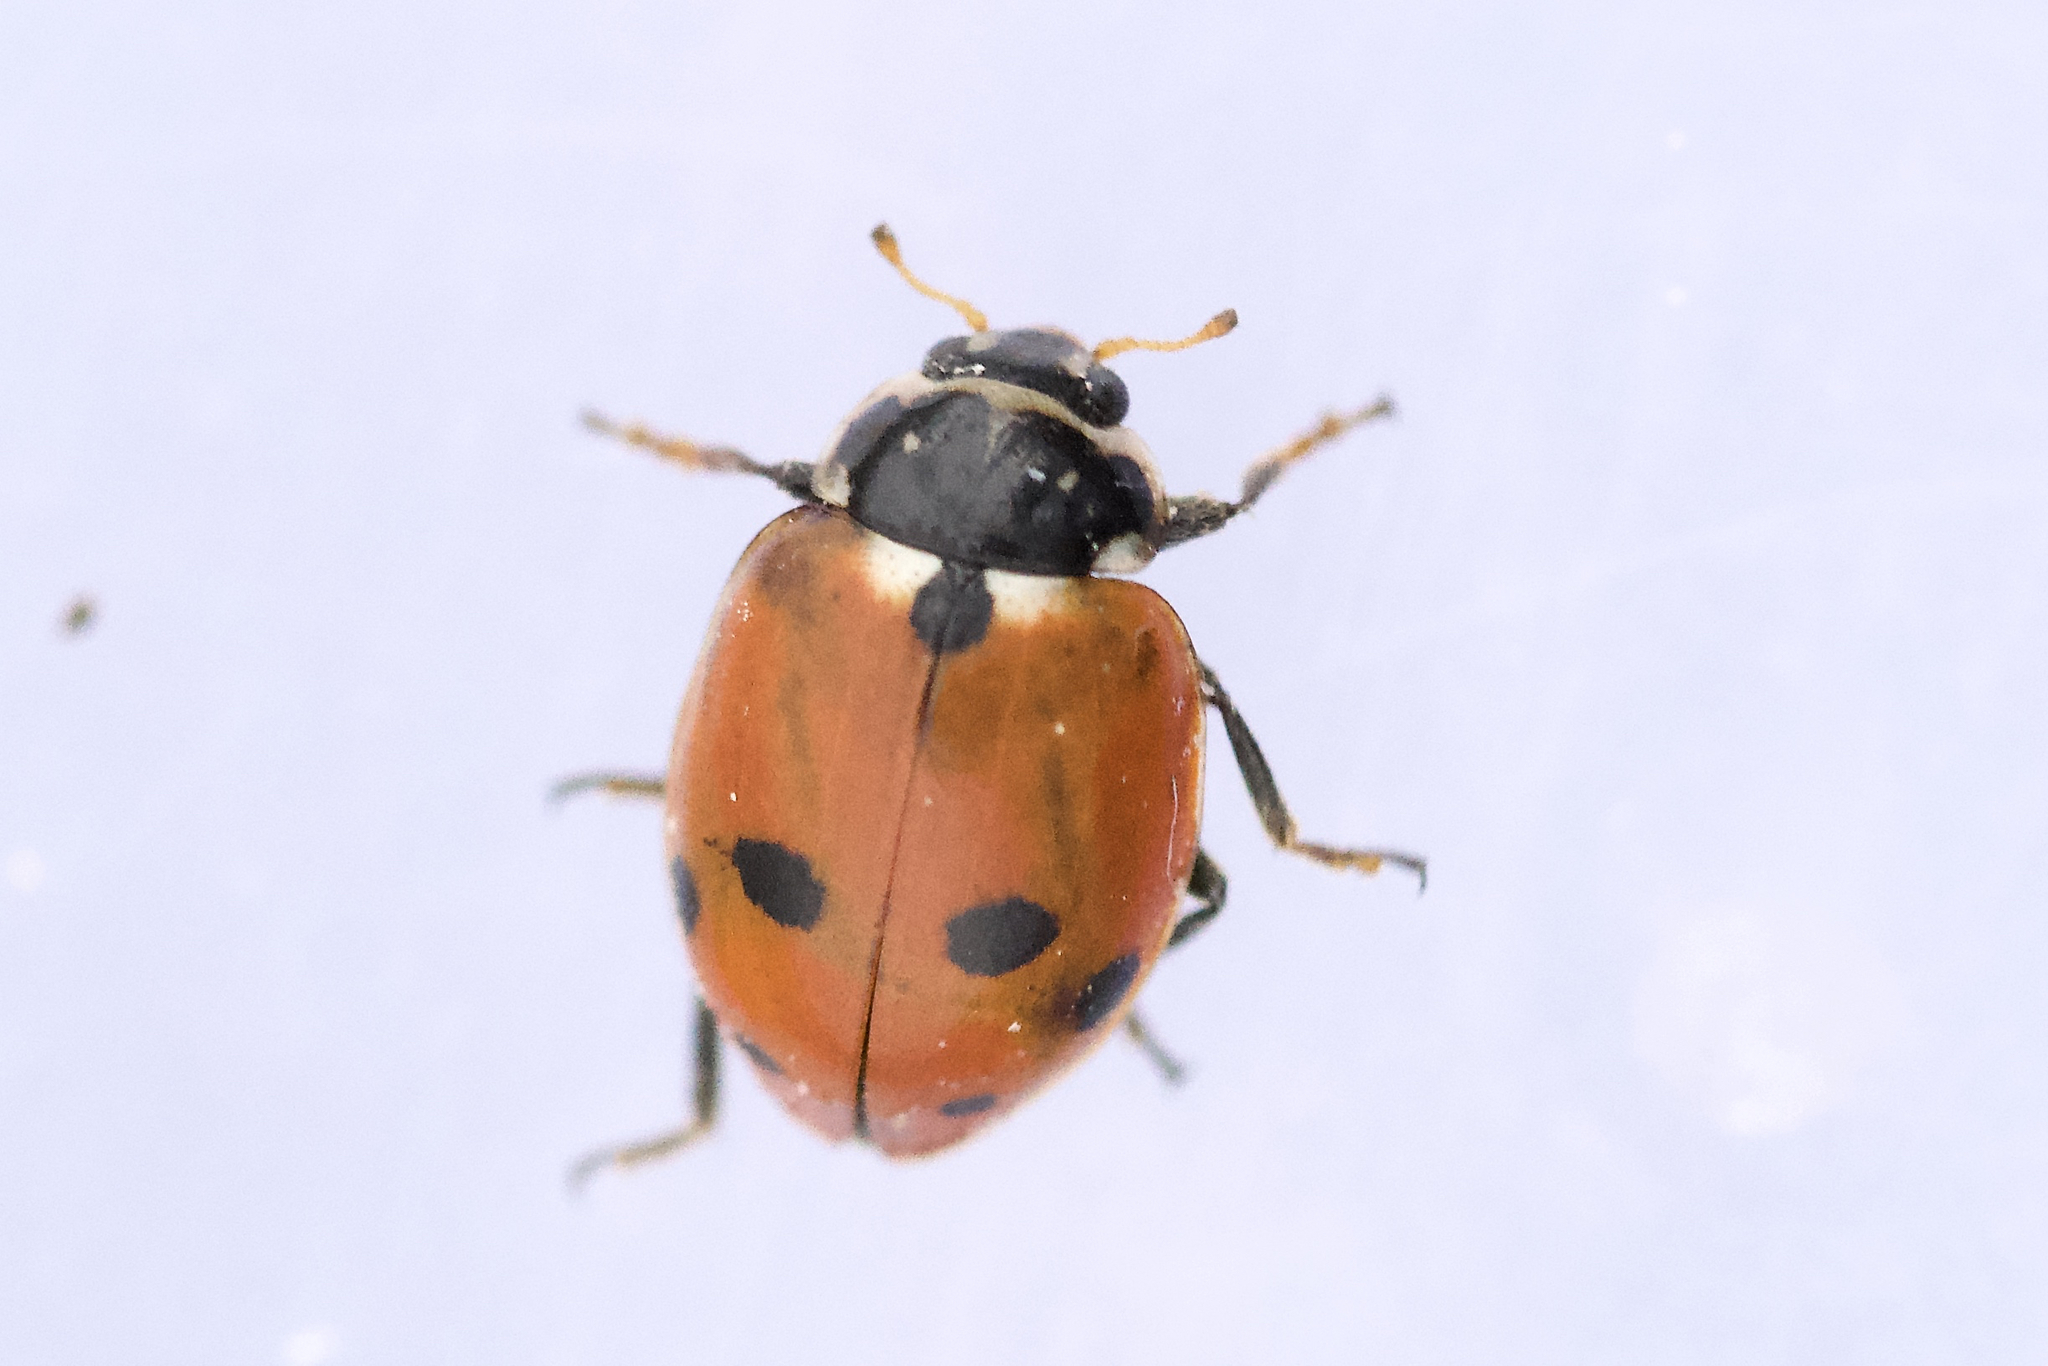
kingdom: Animalia
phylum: Arthropoda
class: Insecta
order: Coleoptera
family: Coccinellidae
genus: Hippodamia
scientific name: Hippodamia variegata
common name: Ladybird beetle
